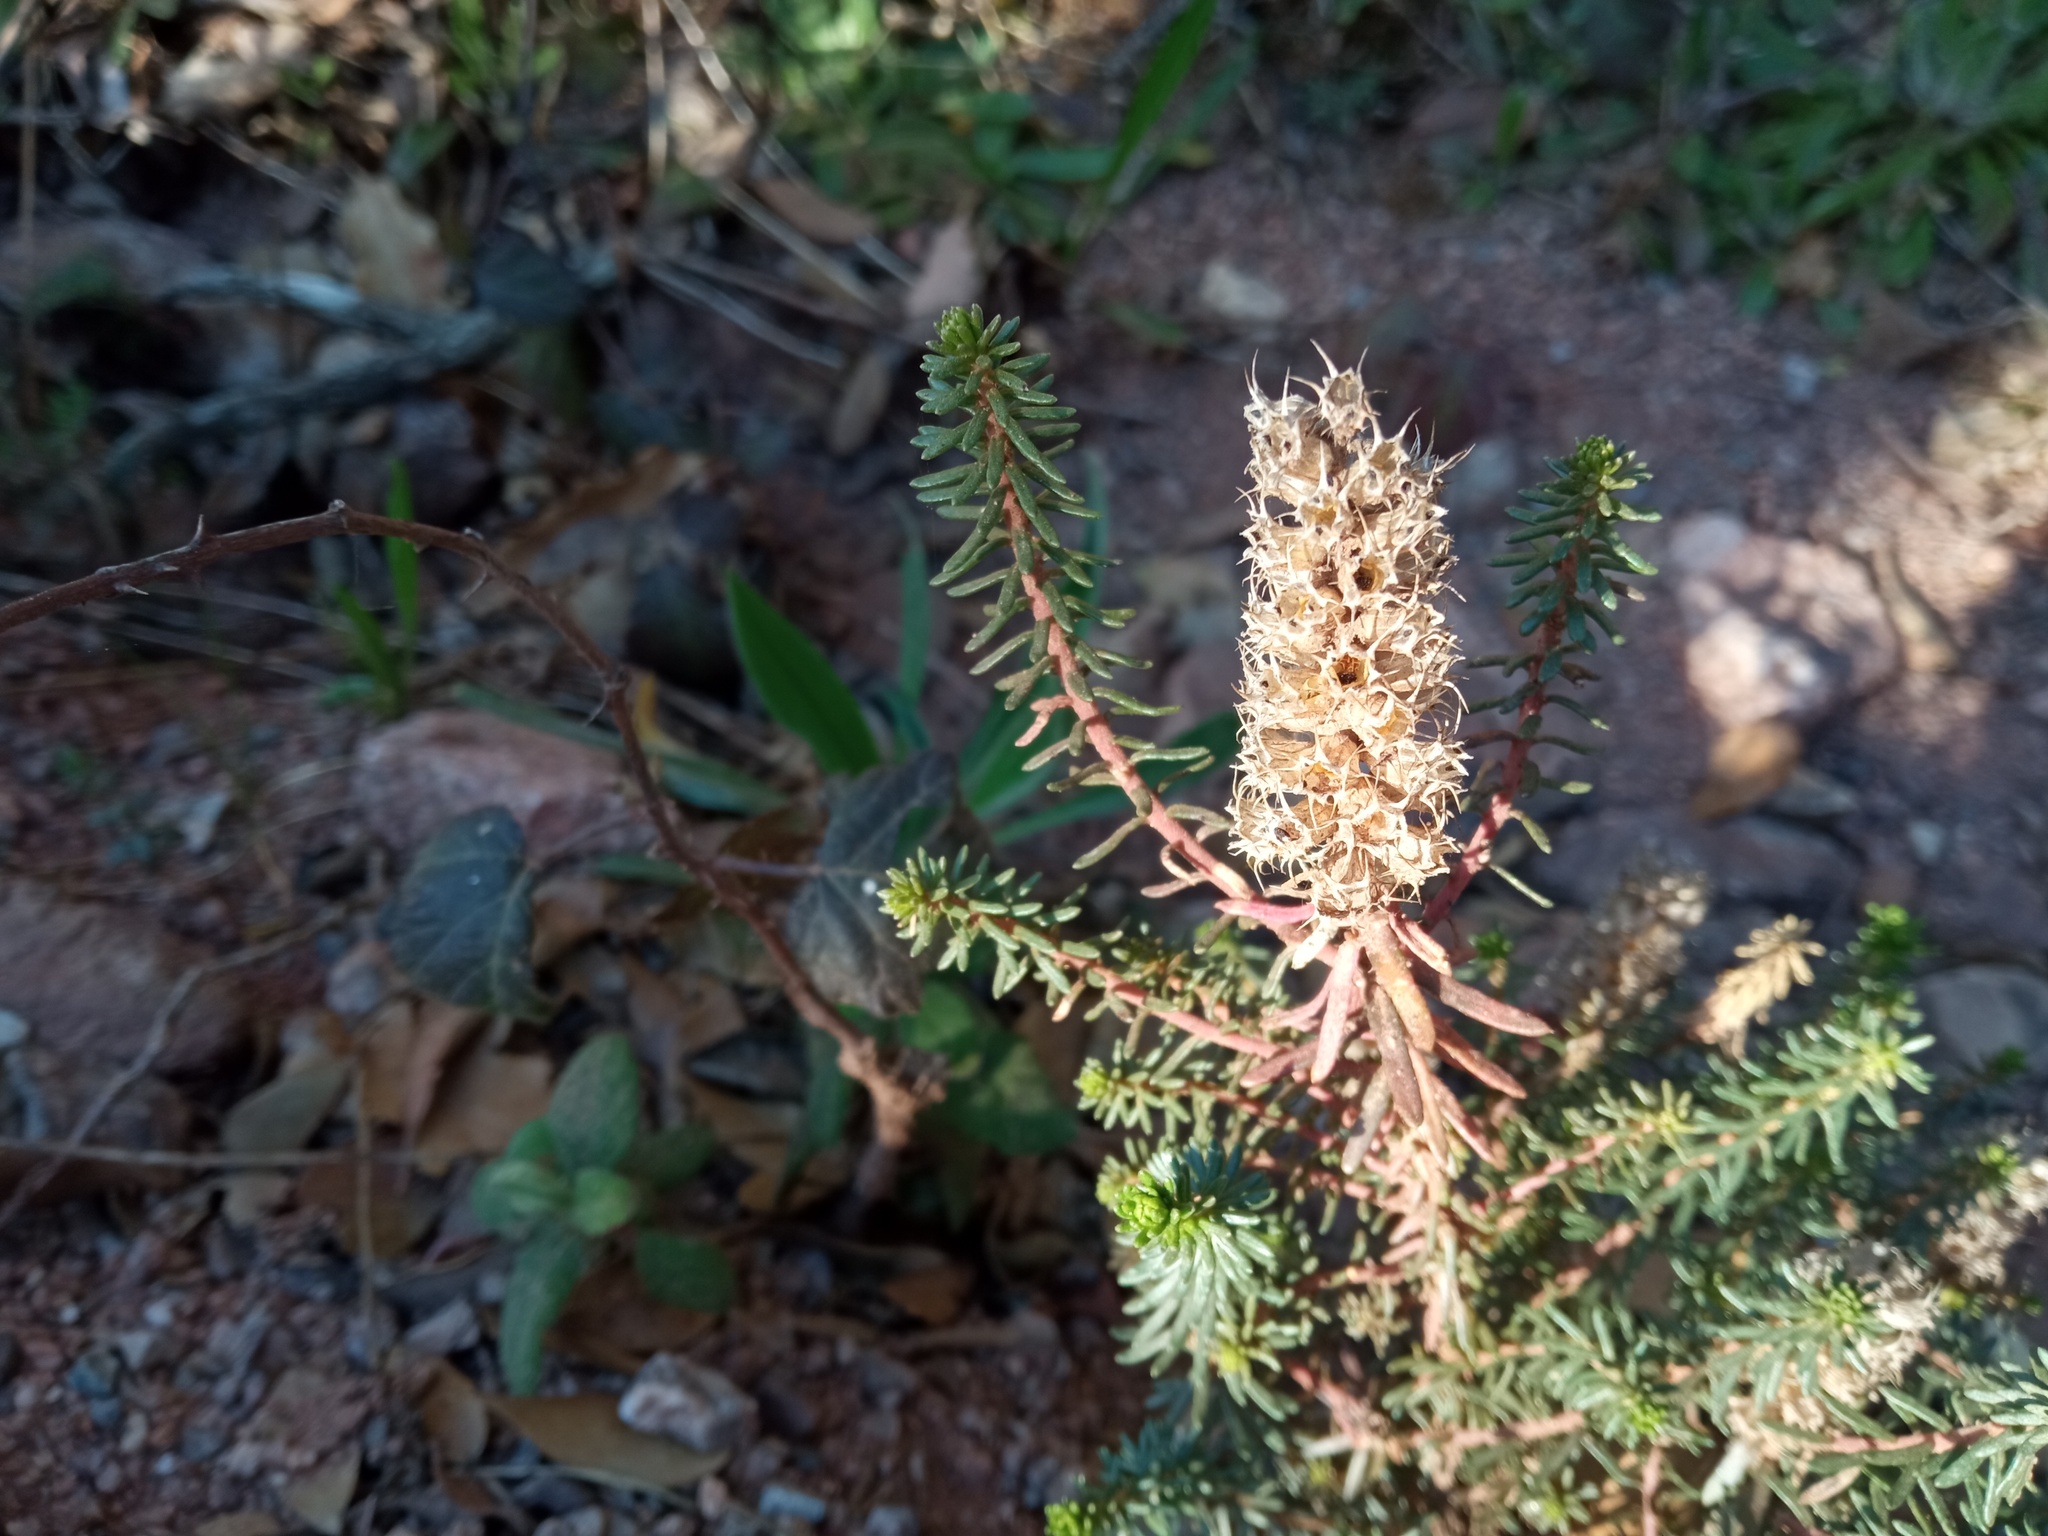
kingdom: Plantae
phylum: Tracheophyta
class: Magnoliopsida
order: Ericales
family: Primulaceae
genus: Coris
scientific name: Coris monspeliensis
